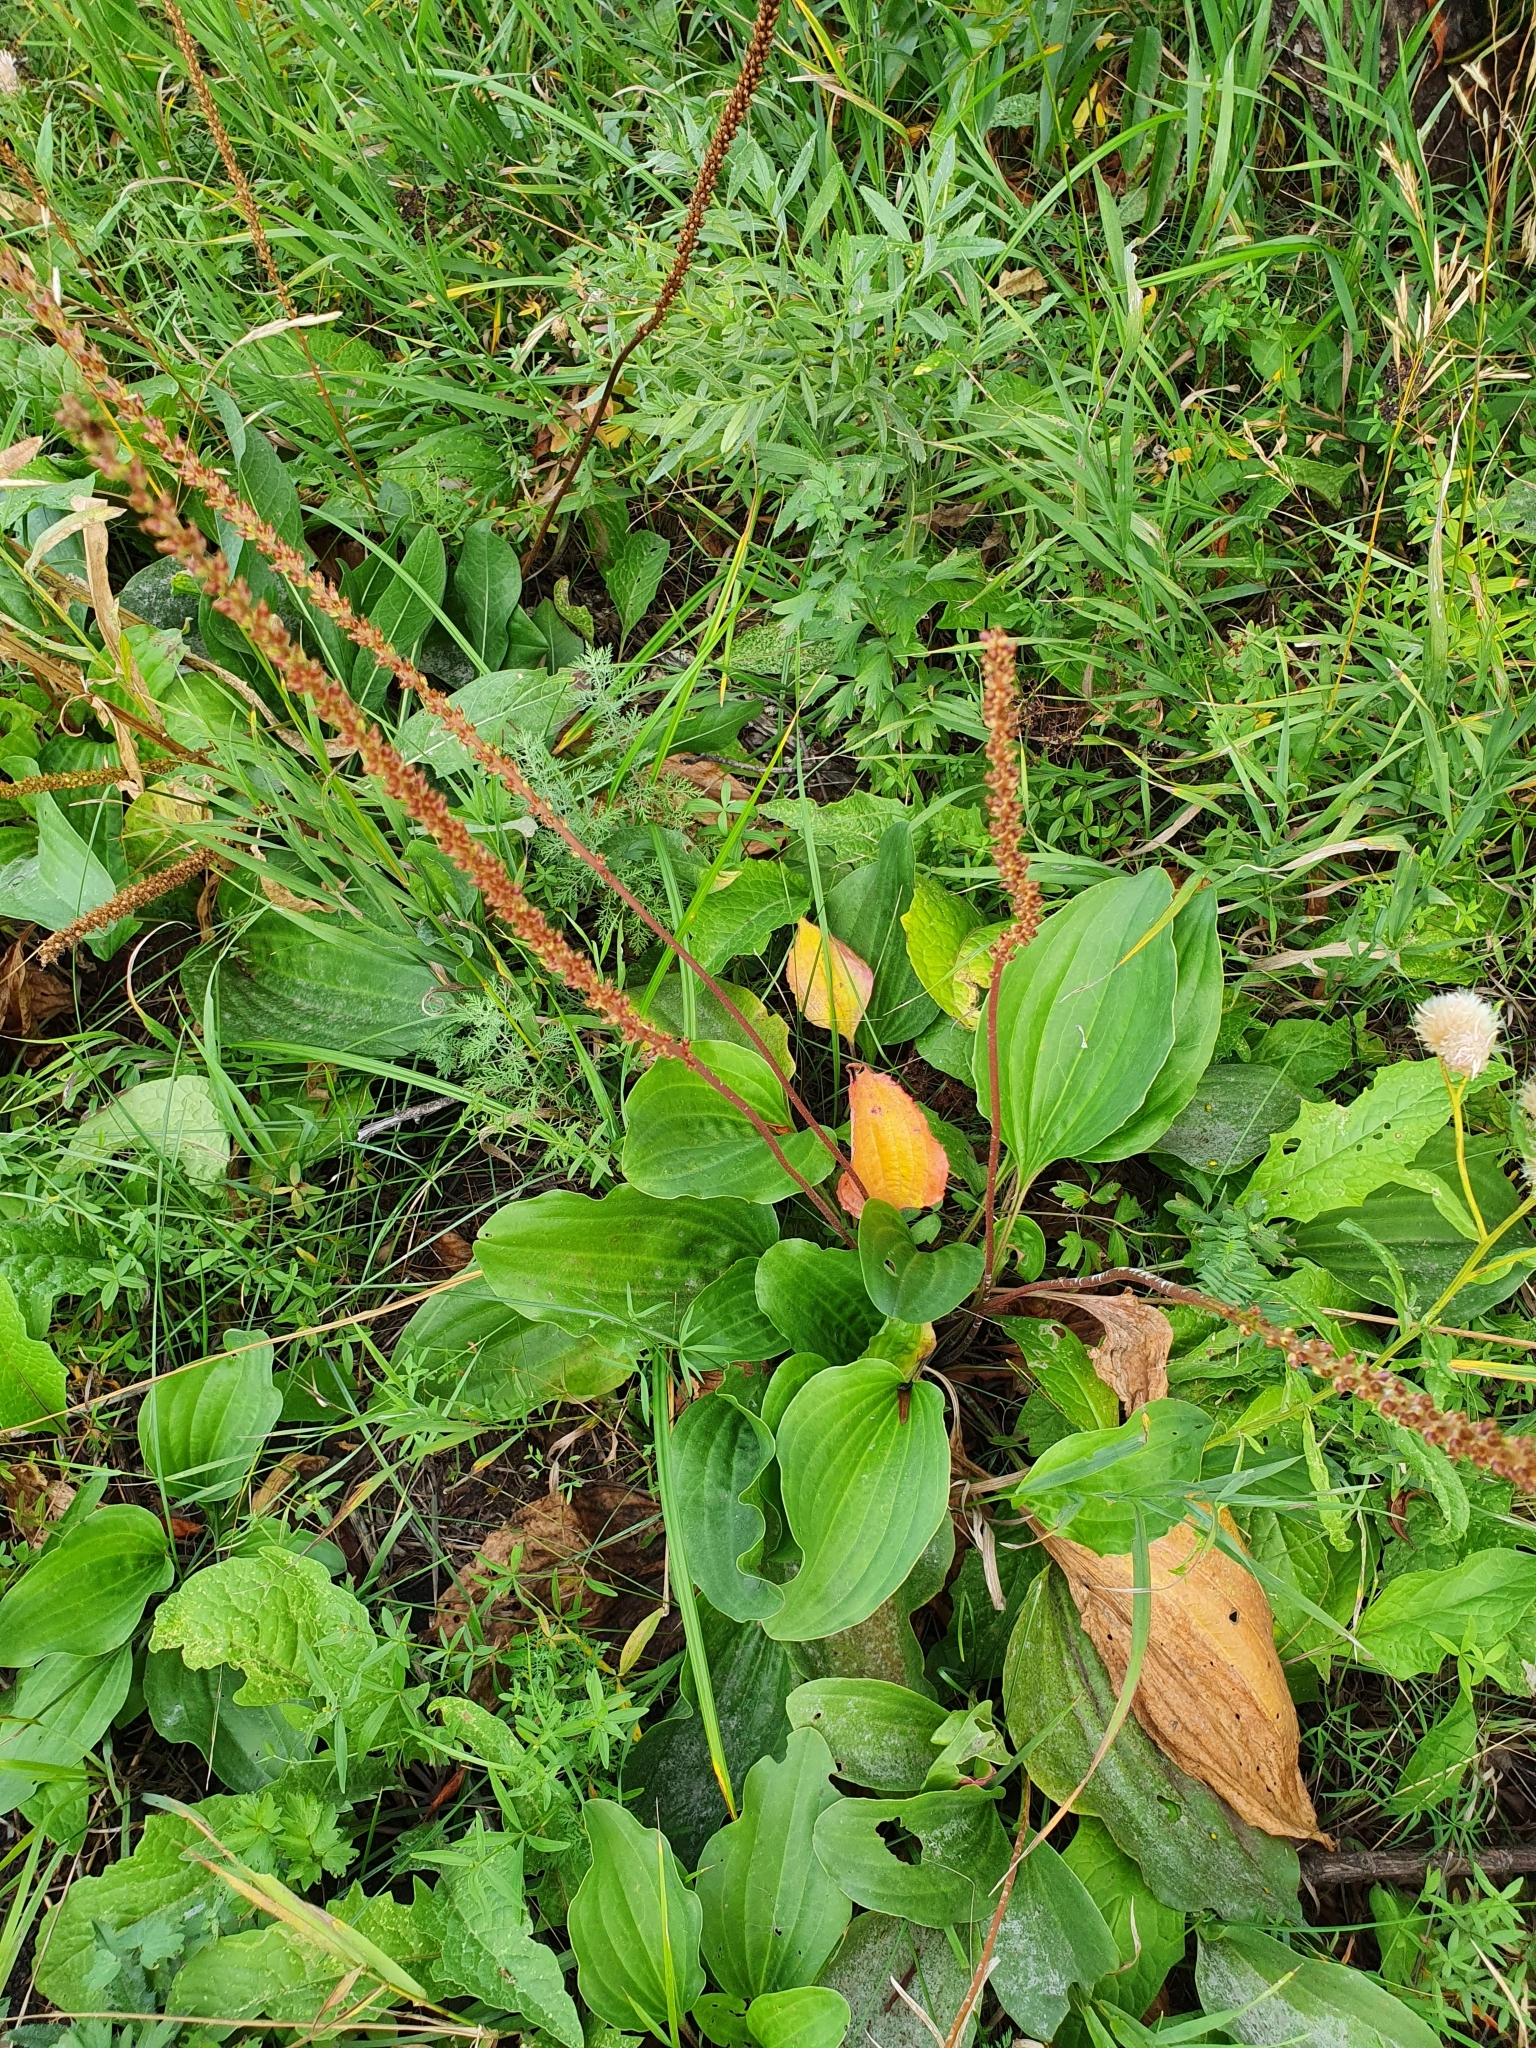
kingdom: Plantae
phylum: Tracheophyta
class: Magnoliopsida
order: Lamiales
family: Plantaginaceae
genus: Plantago
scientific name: Plantago cornuti
